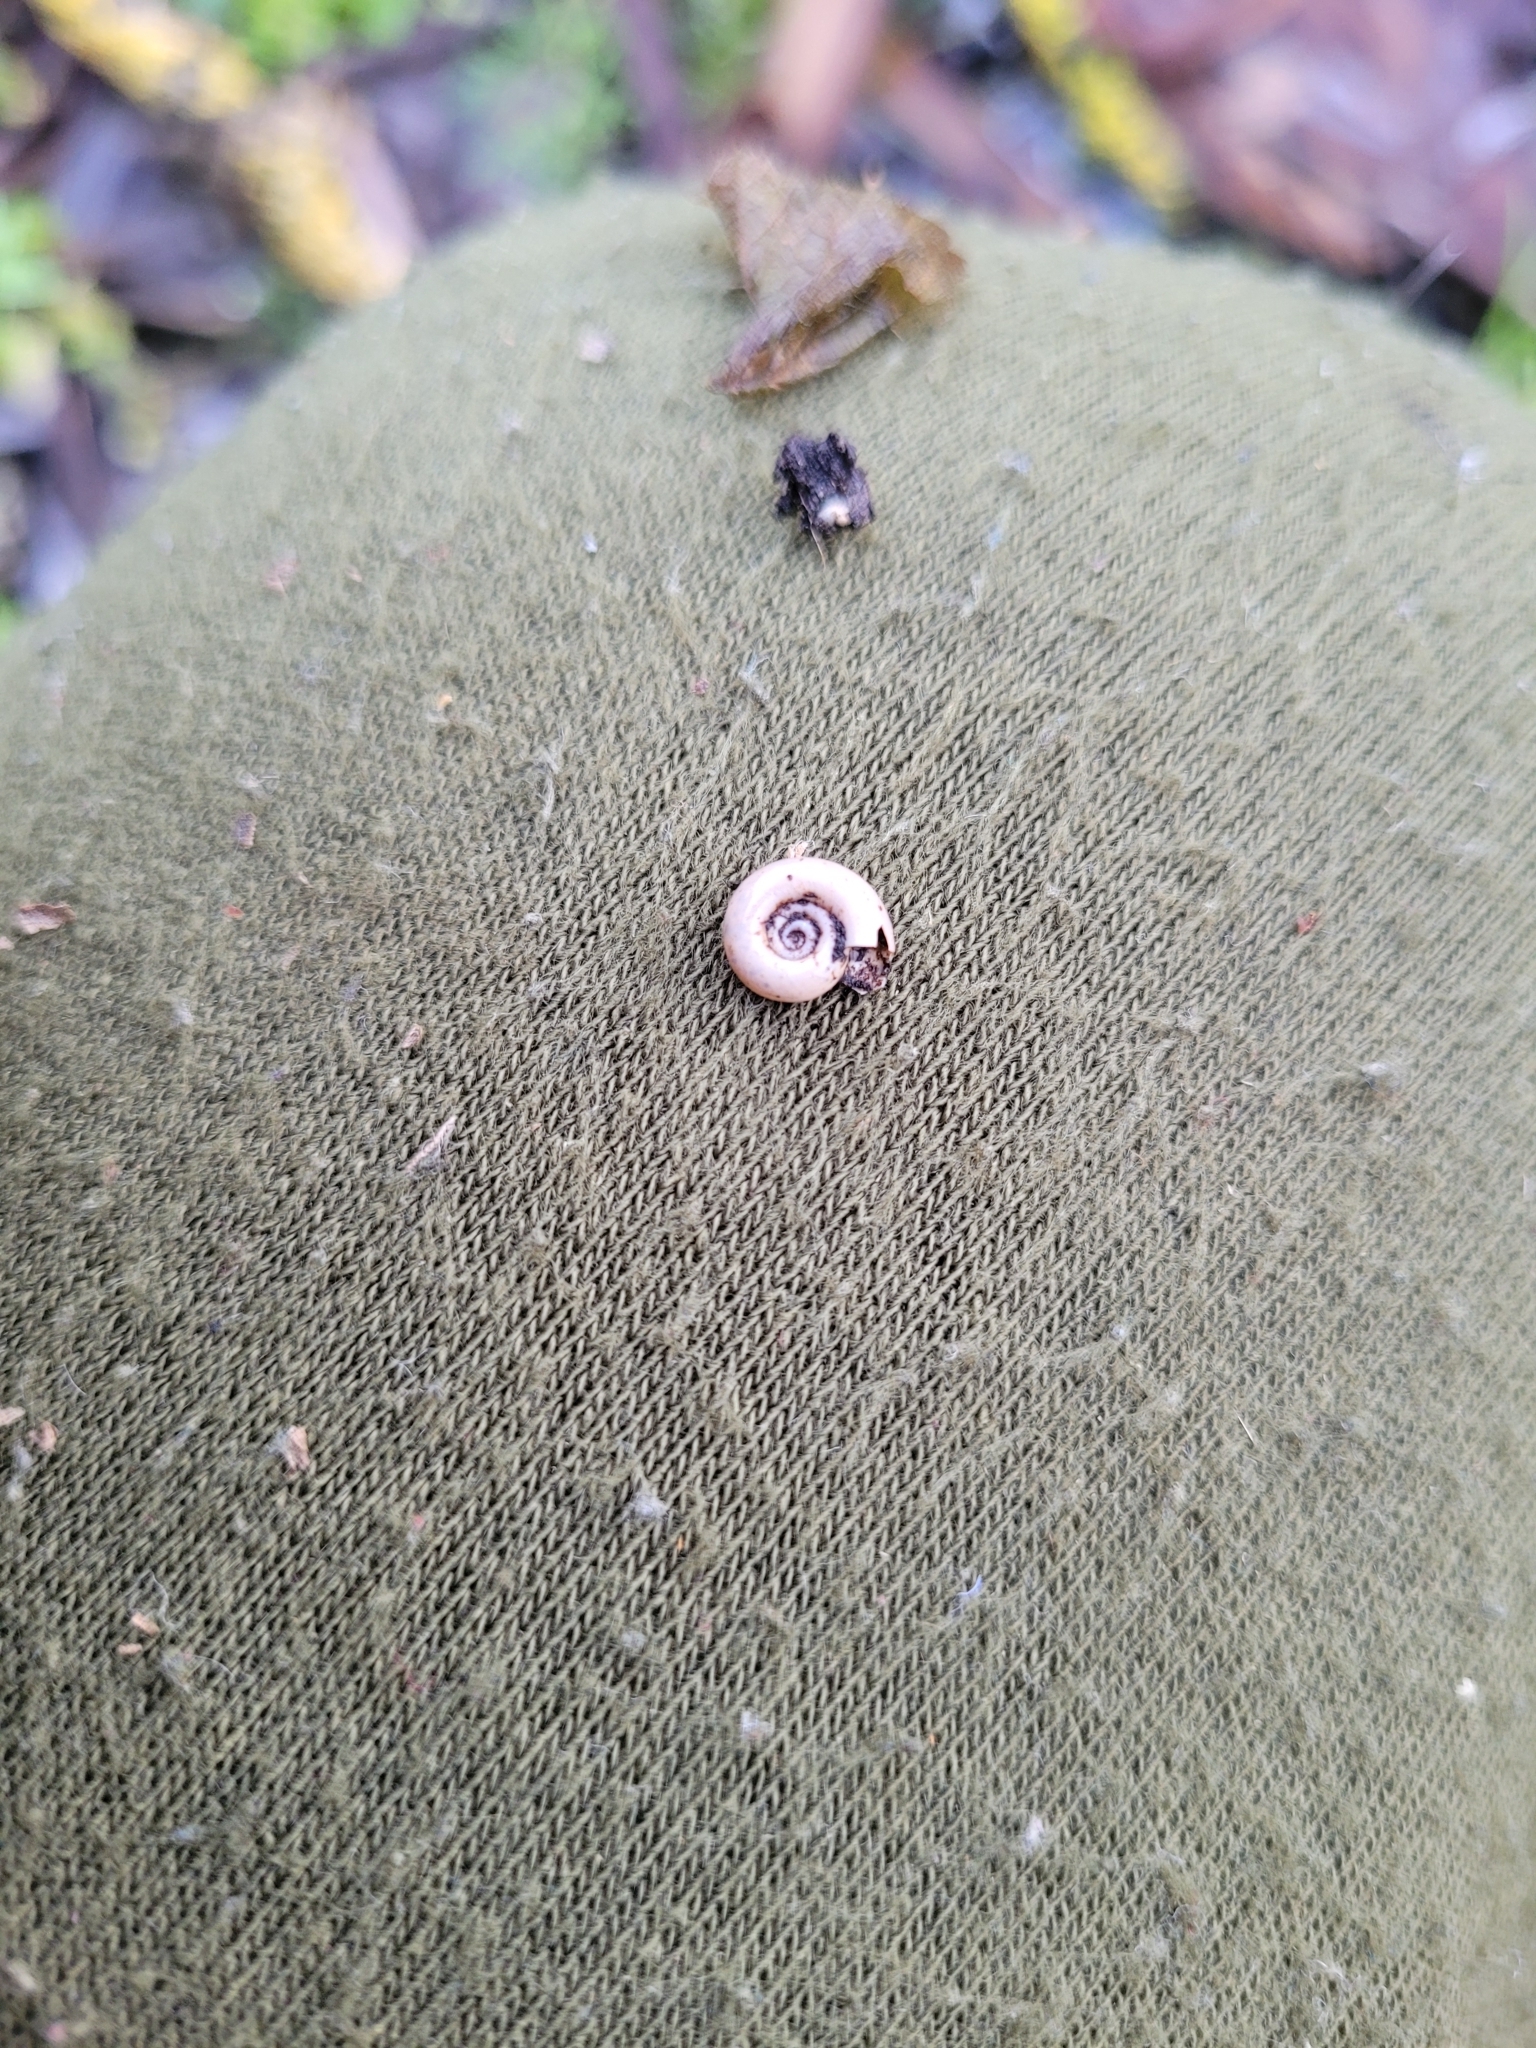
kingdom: Animalia
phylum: Mollusca
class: Gastropoda
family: Planorbidae
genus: Planorbis
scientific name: Planorbis planorbis
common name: Margined ramshorn
